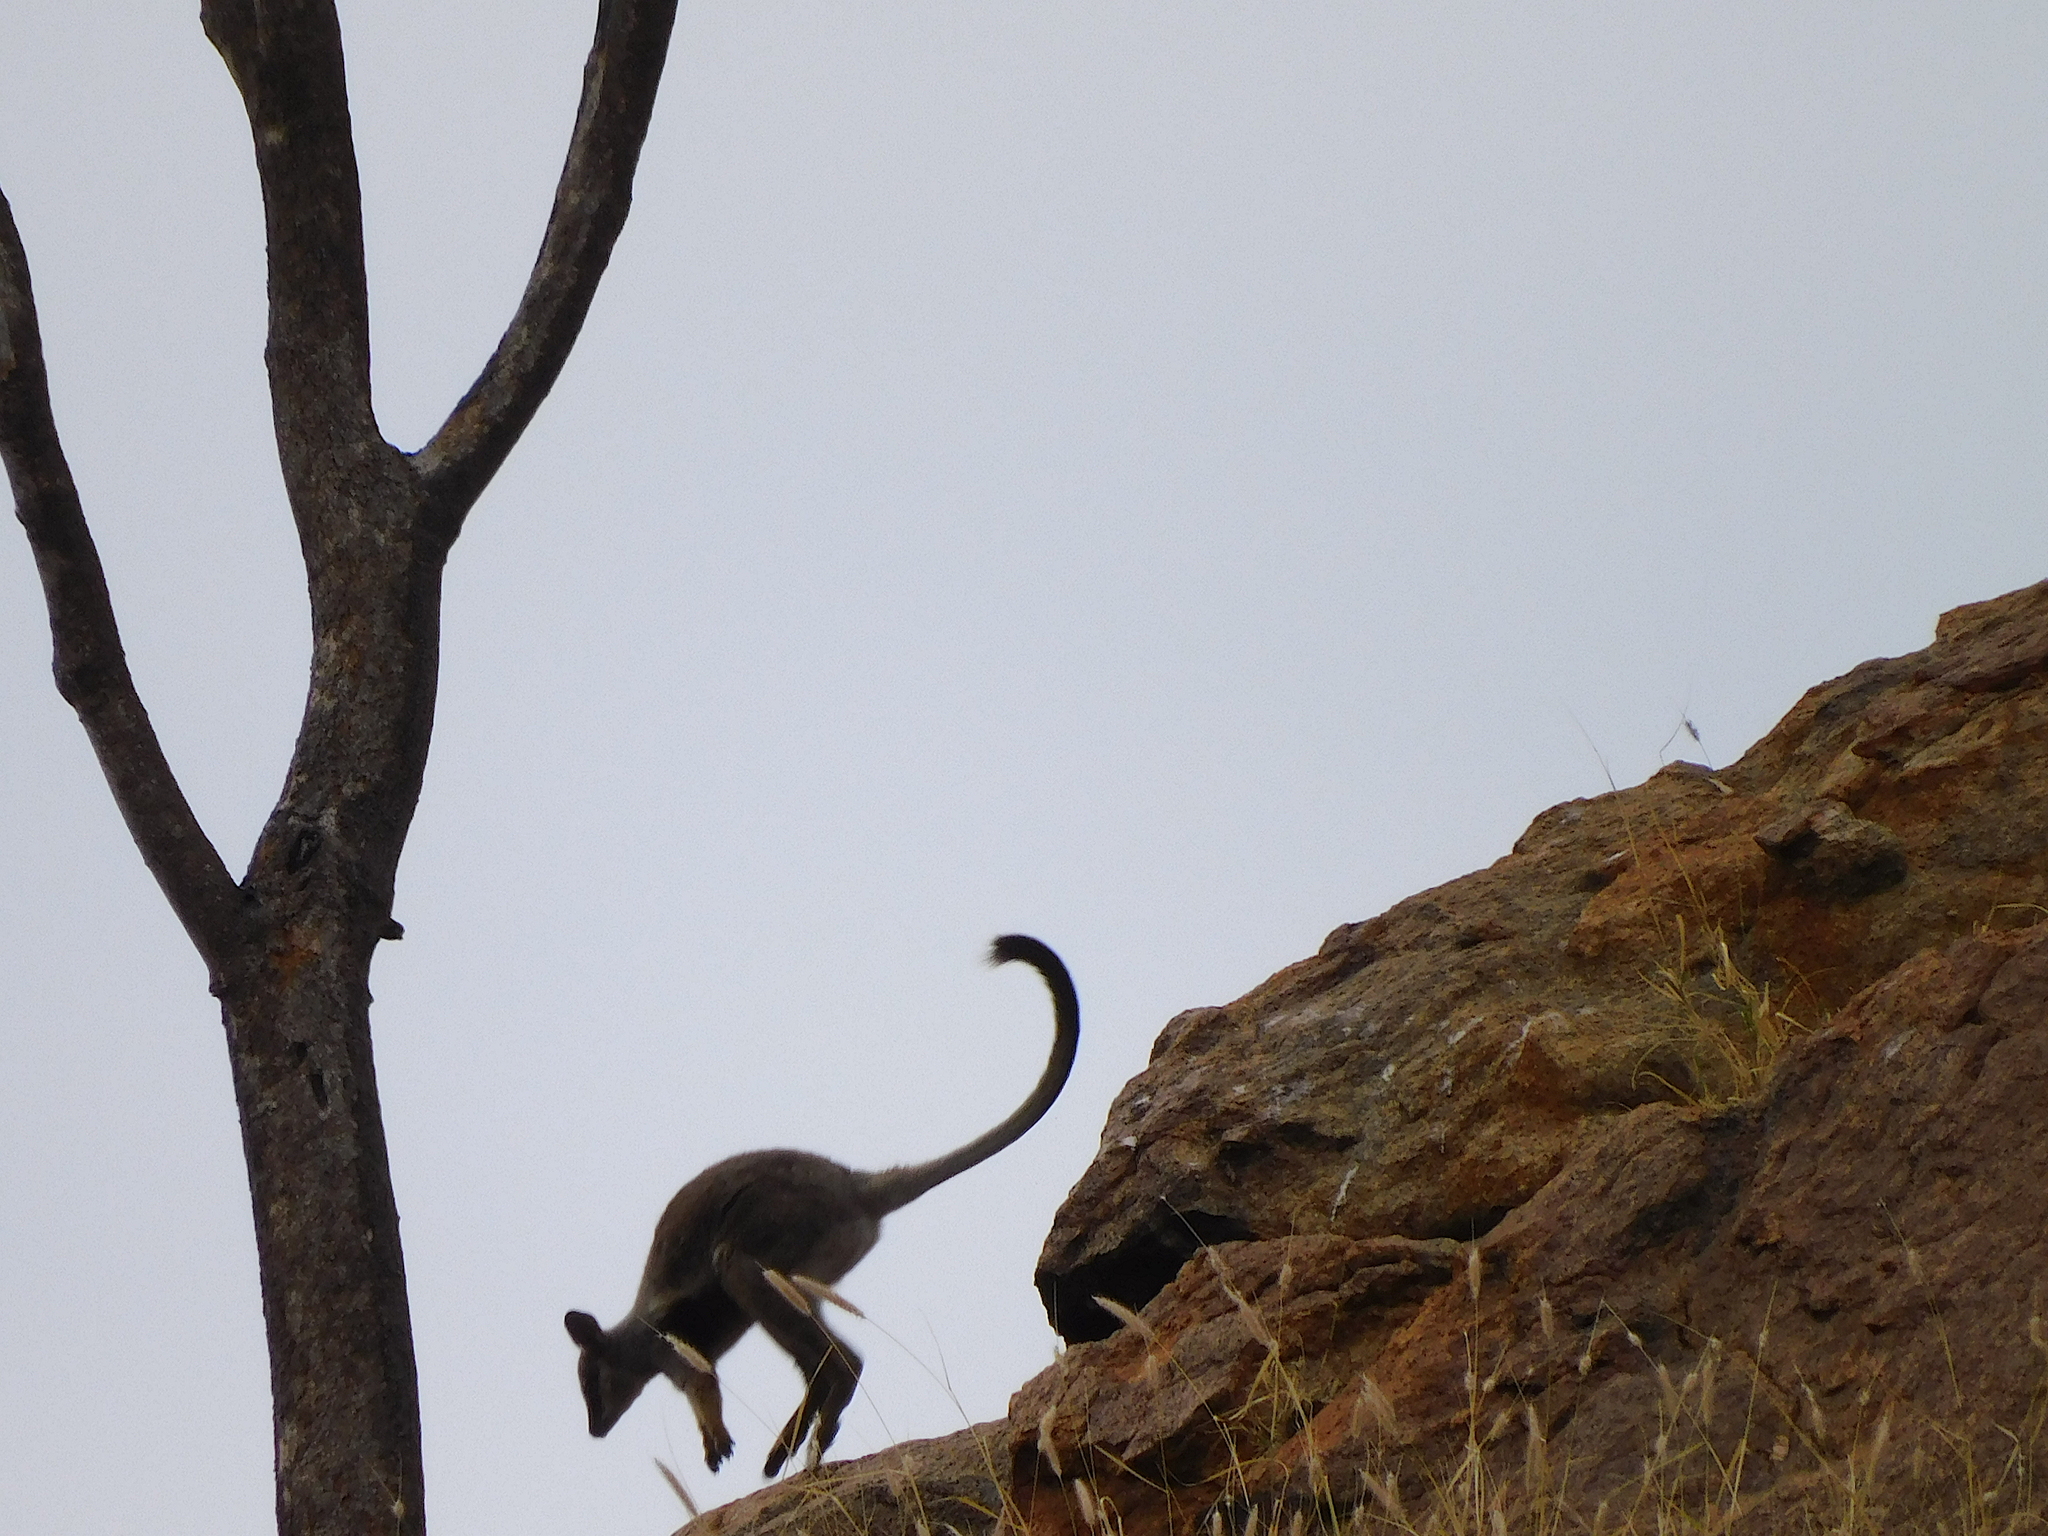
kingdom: Animalia
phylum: Chordata
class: Mammalia
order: Diprotodontia
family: Macropodidae
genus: Petrogale
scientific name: Petrogale lateralis
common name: Black-flanked rock-wallaby
